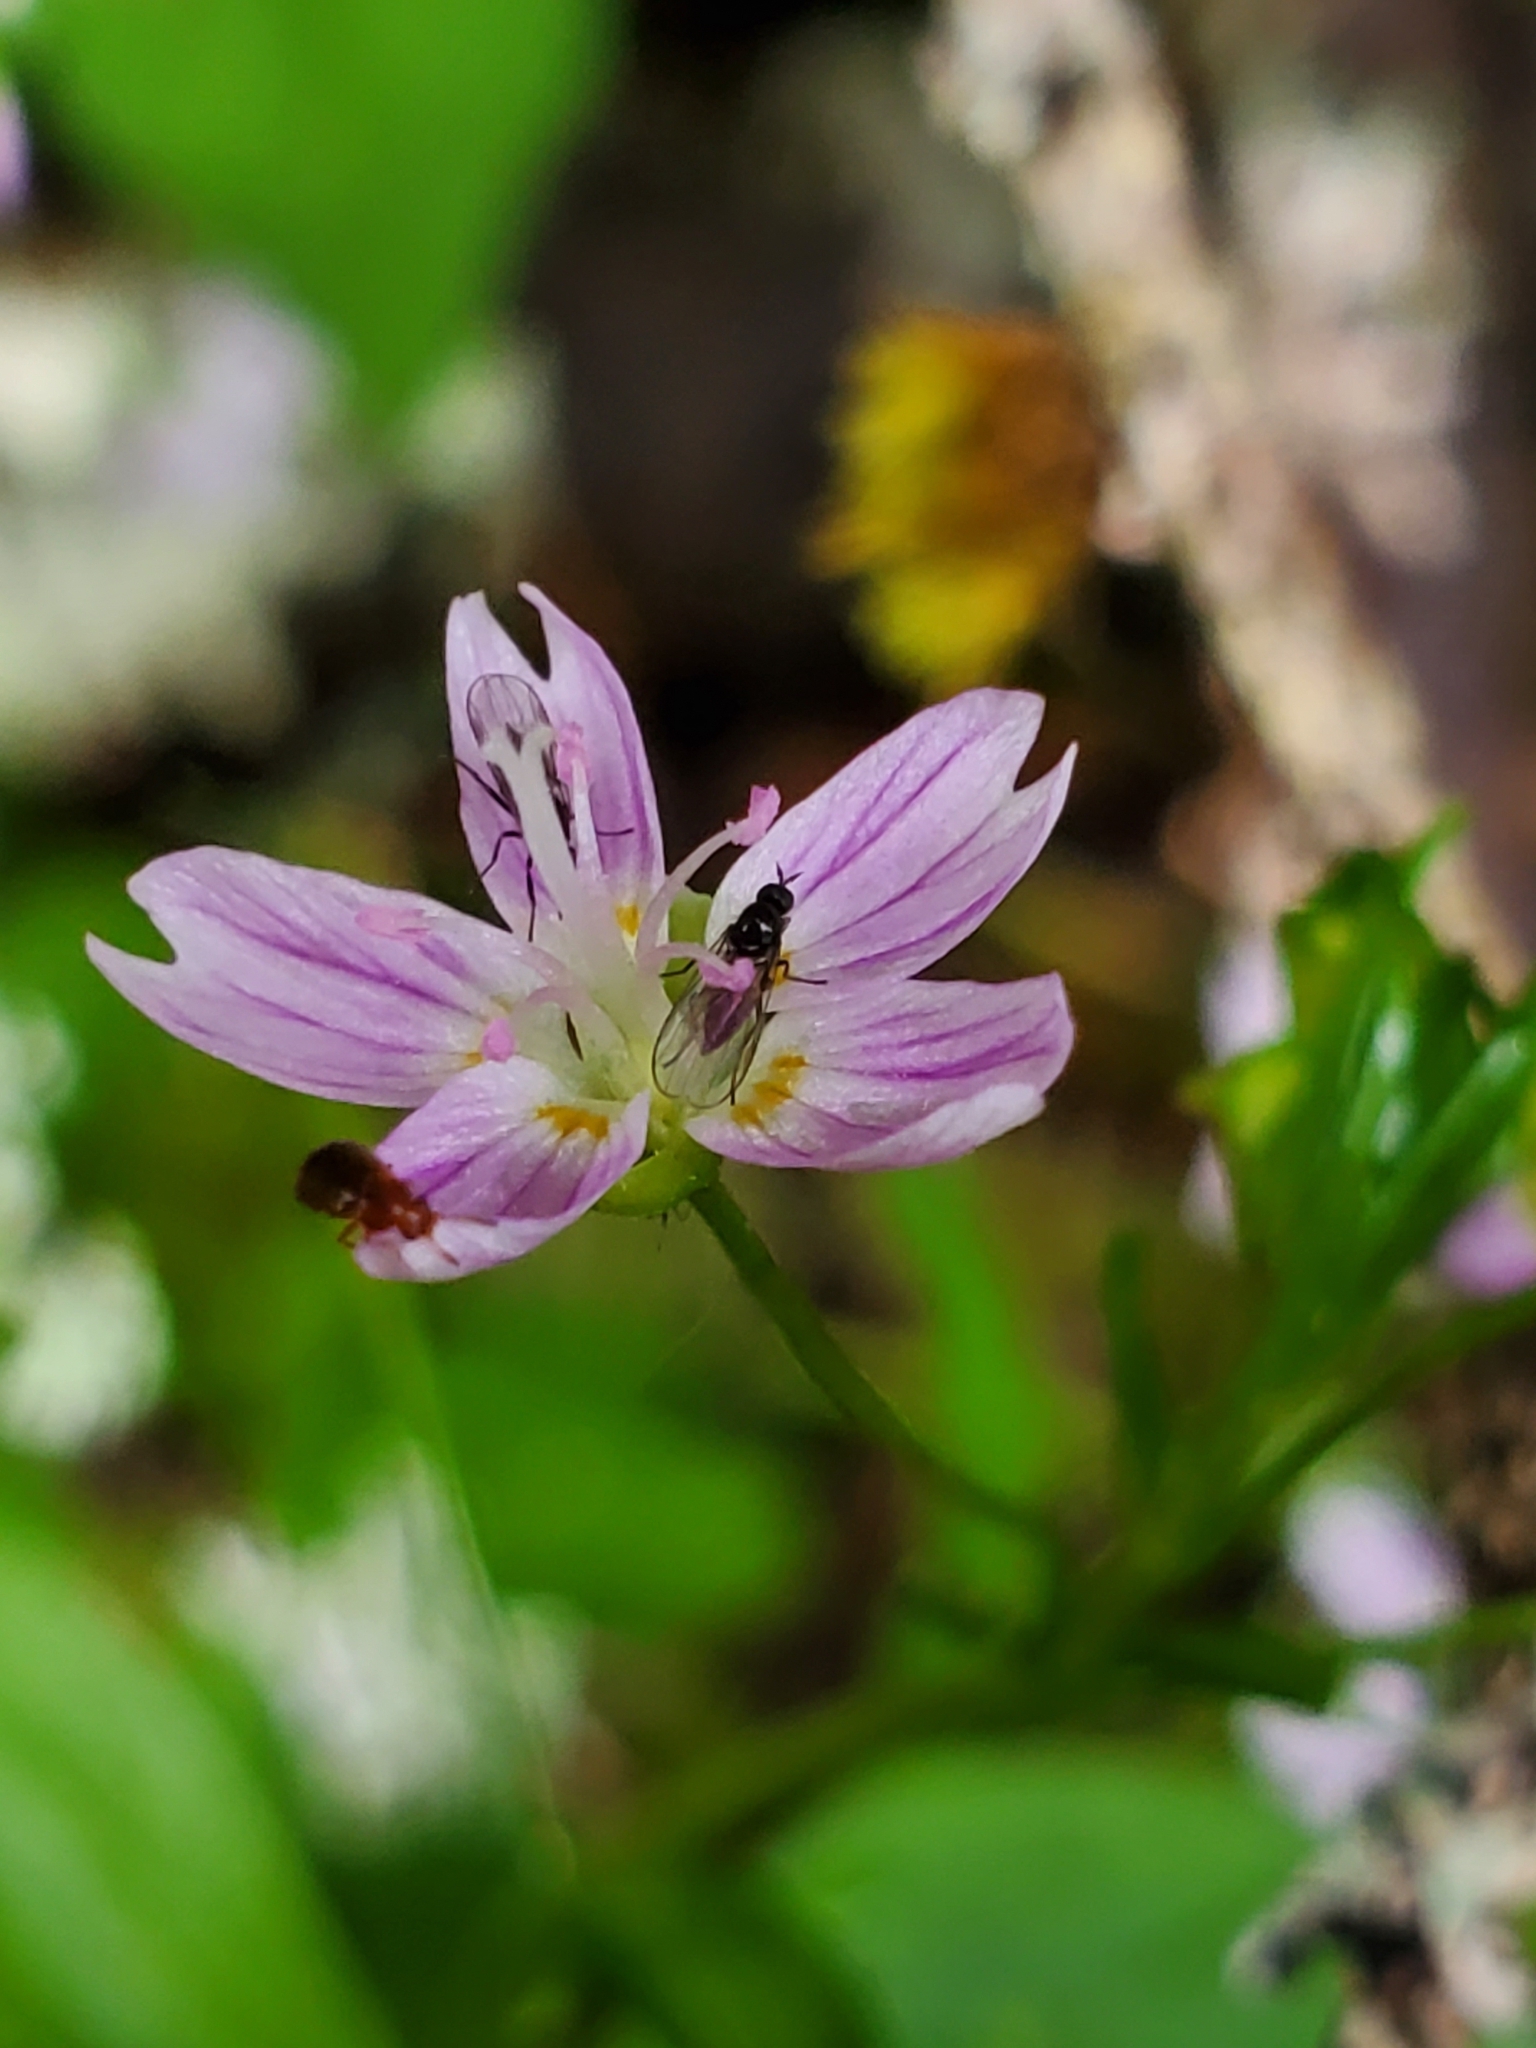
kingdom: Plantae
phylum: Tracheophyta
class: Magnoliopsida
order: Caryophyllales
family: Montiaceae
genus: Claytonia
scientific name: Claytonia sibirica
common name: Pink purslane
